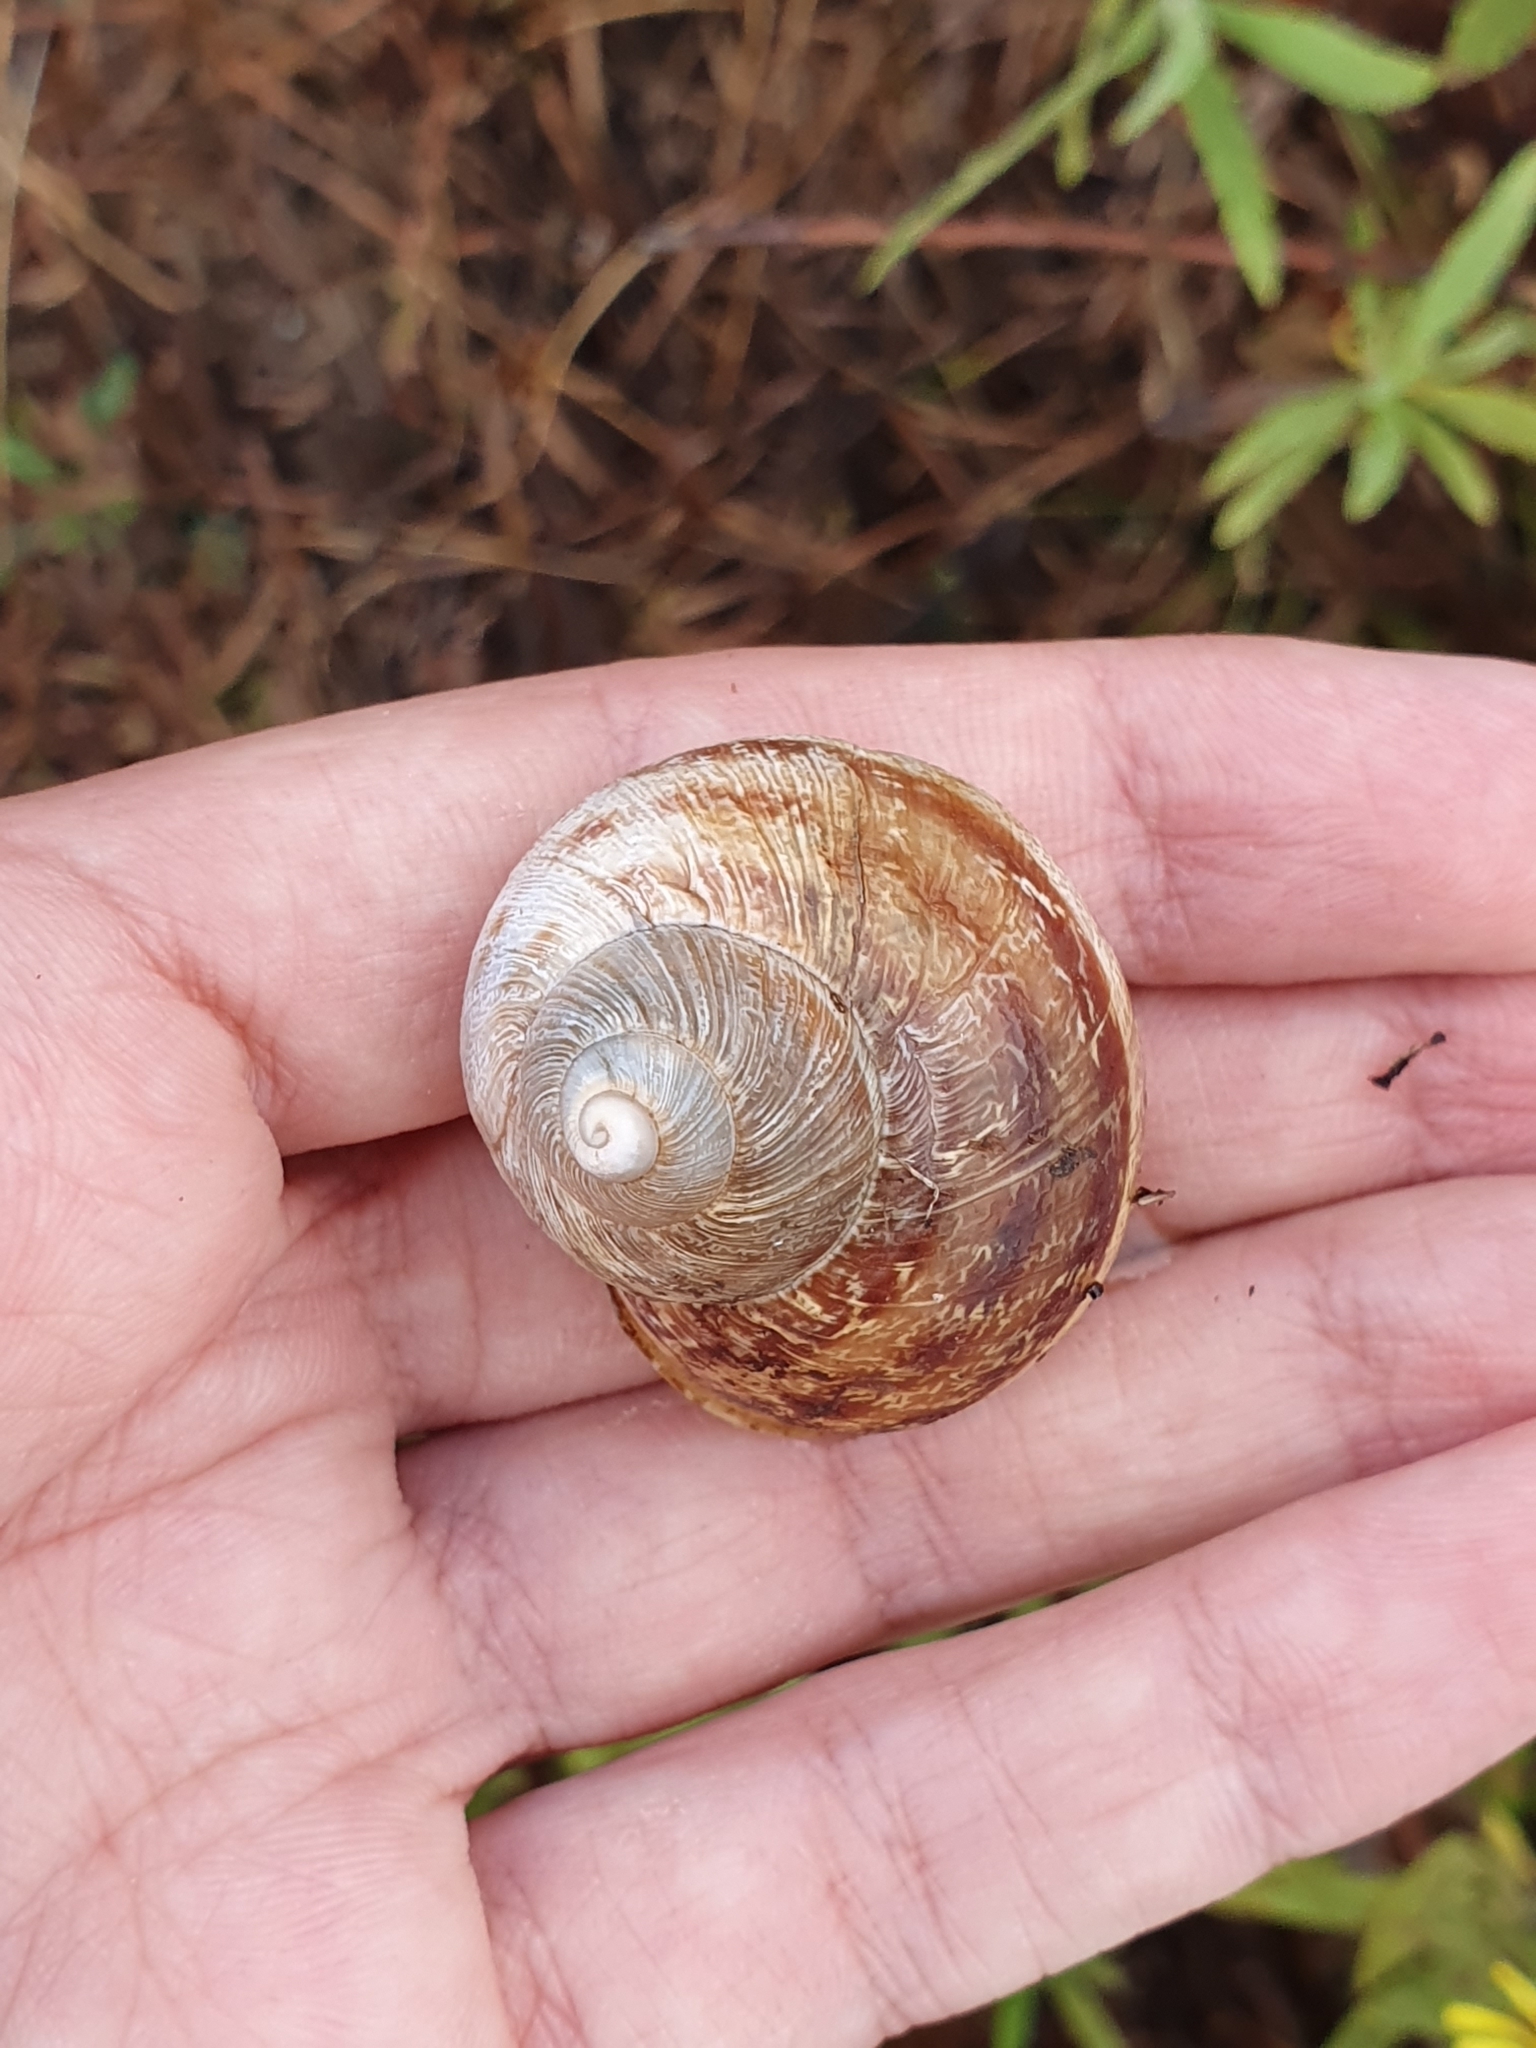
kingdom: Animalia
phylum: Mollusca
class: Gastropoda
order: Stylommatophora
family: Helicidae
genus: Cornu
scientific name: Cornu aspersum
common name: Brown garden snail
